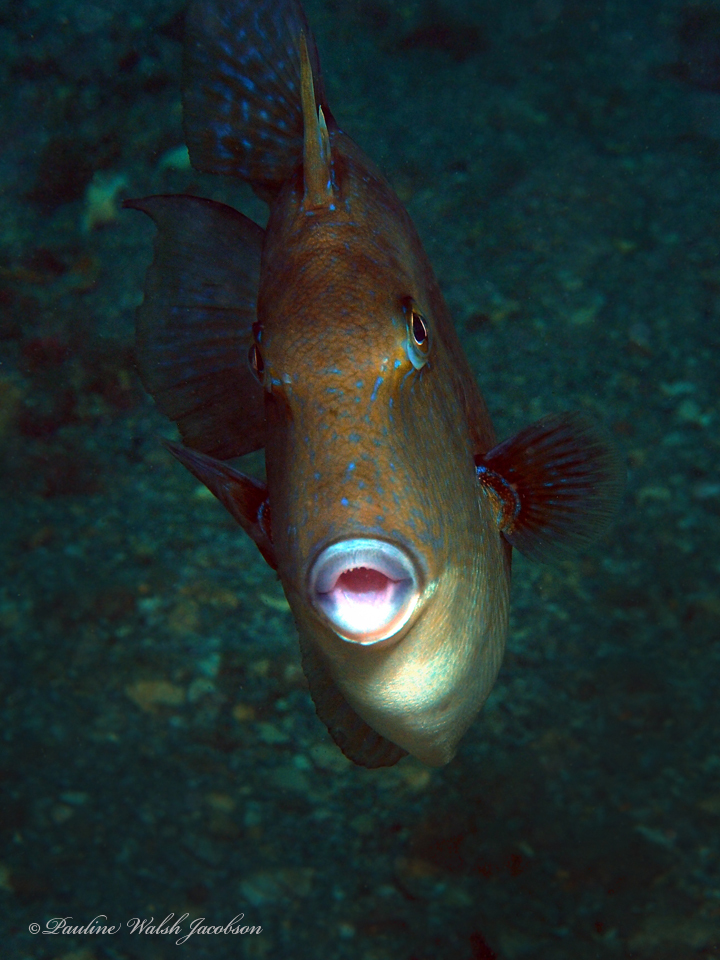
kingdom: Animalia
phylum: Chordata
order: Tetraodontiformes
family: Balistidae
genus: Balistes
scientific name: Balistes capriscus
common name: Grey triggerfish
